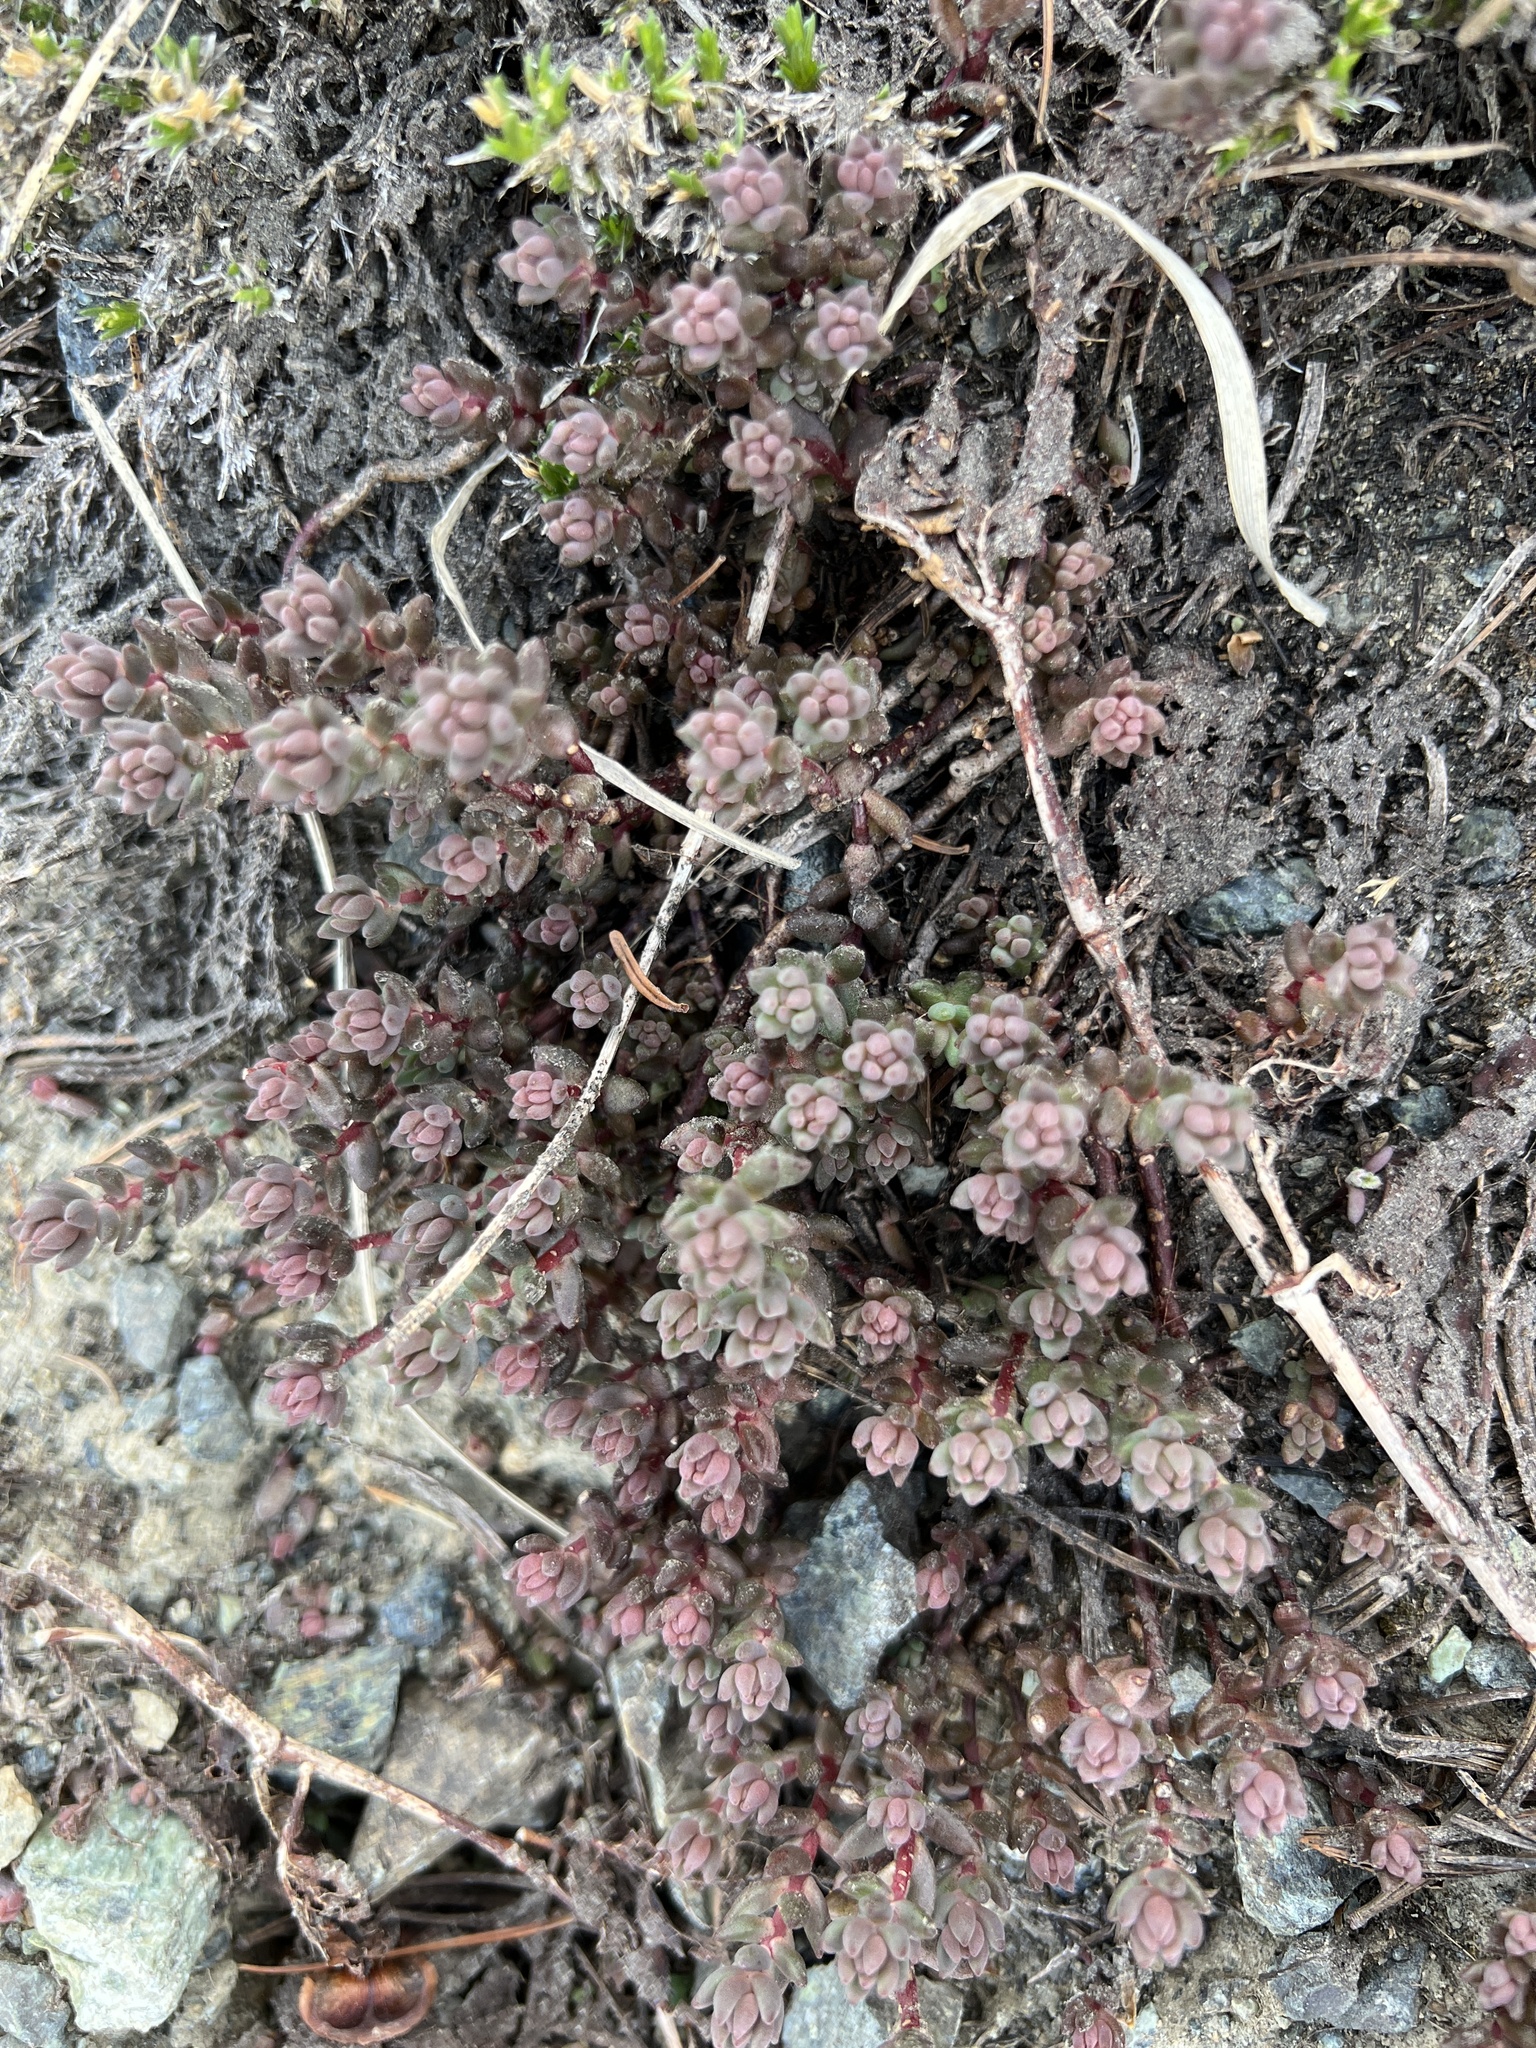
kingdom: Plantae
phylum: Tracheophyta
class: Magnoliopsida
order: Saxifragales
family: Crassulaceae
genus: Sedum
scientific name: Sedum rupicola
